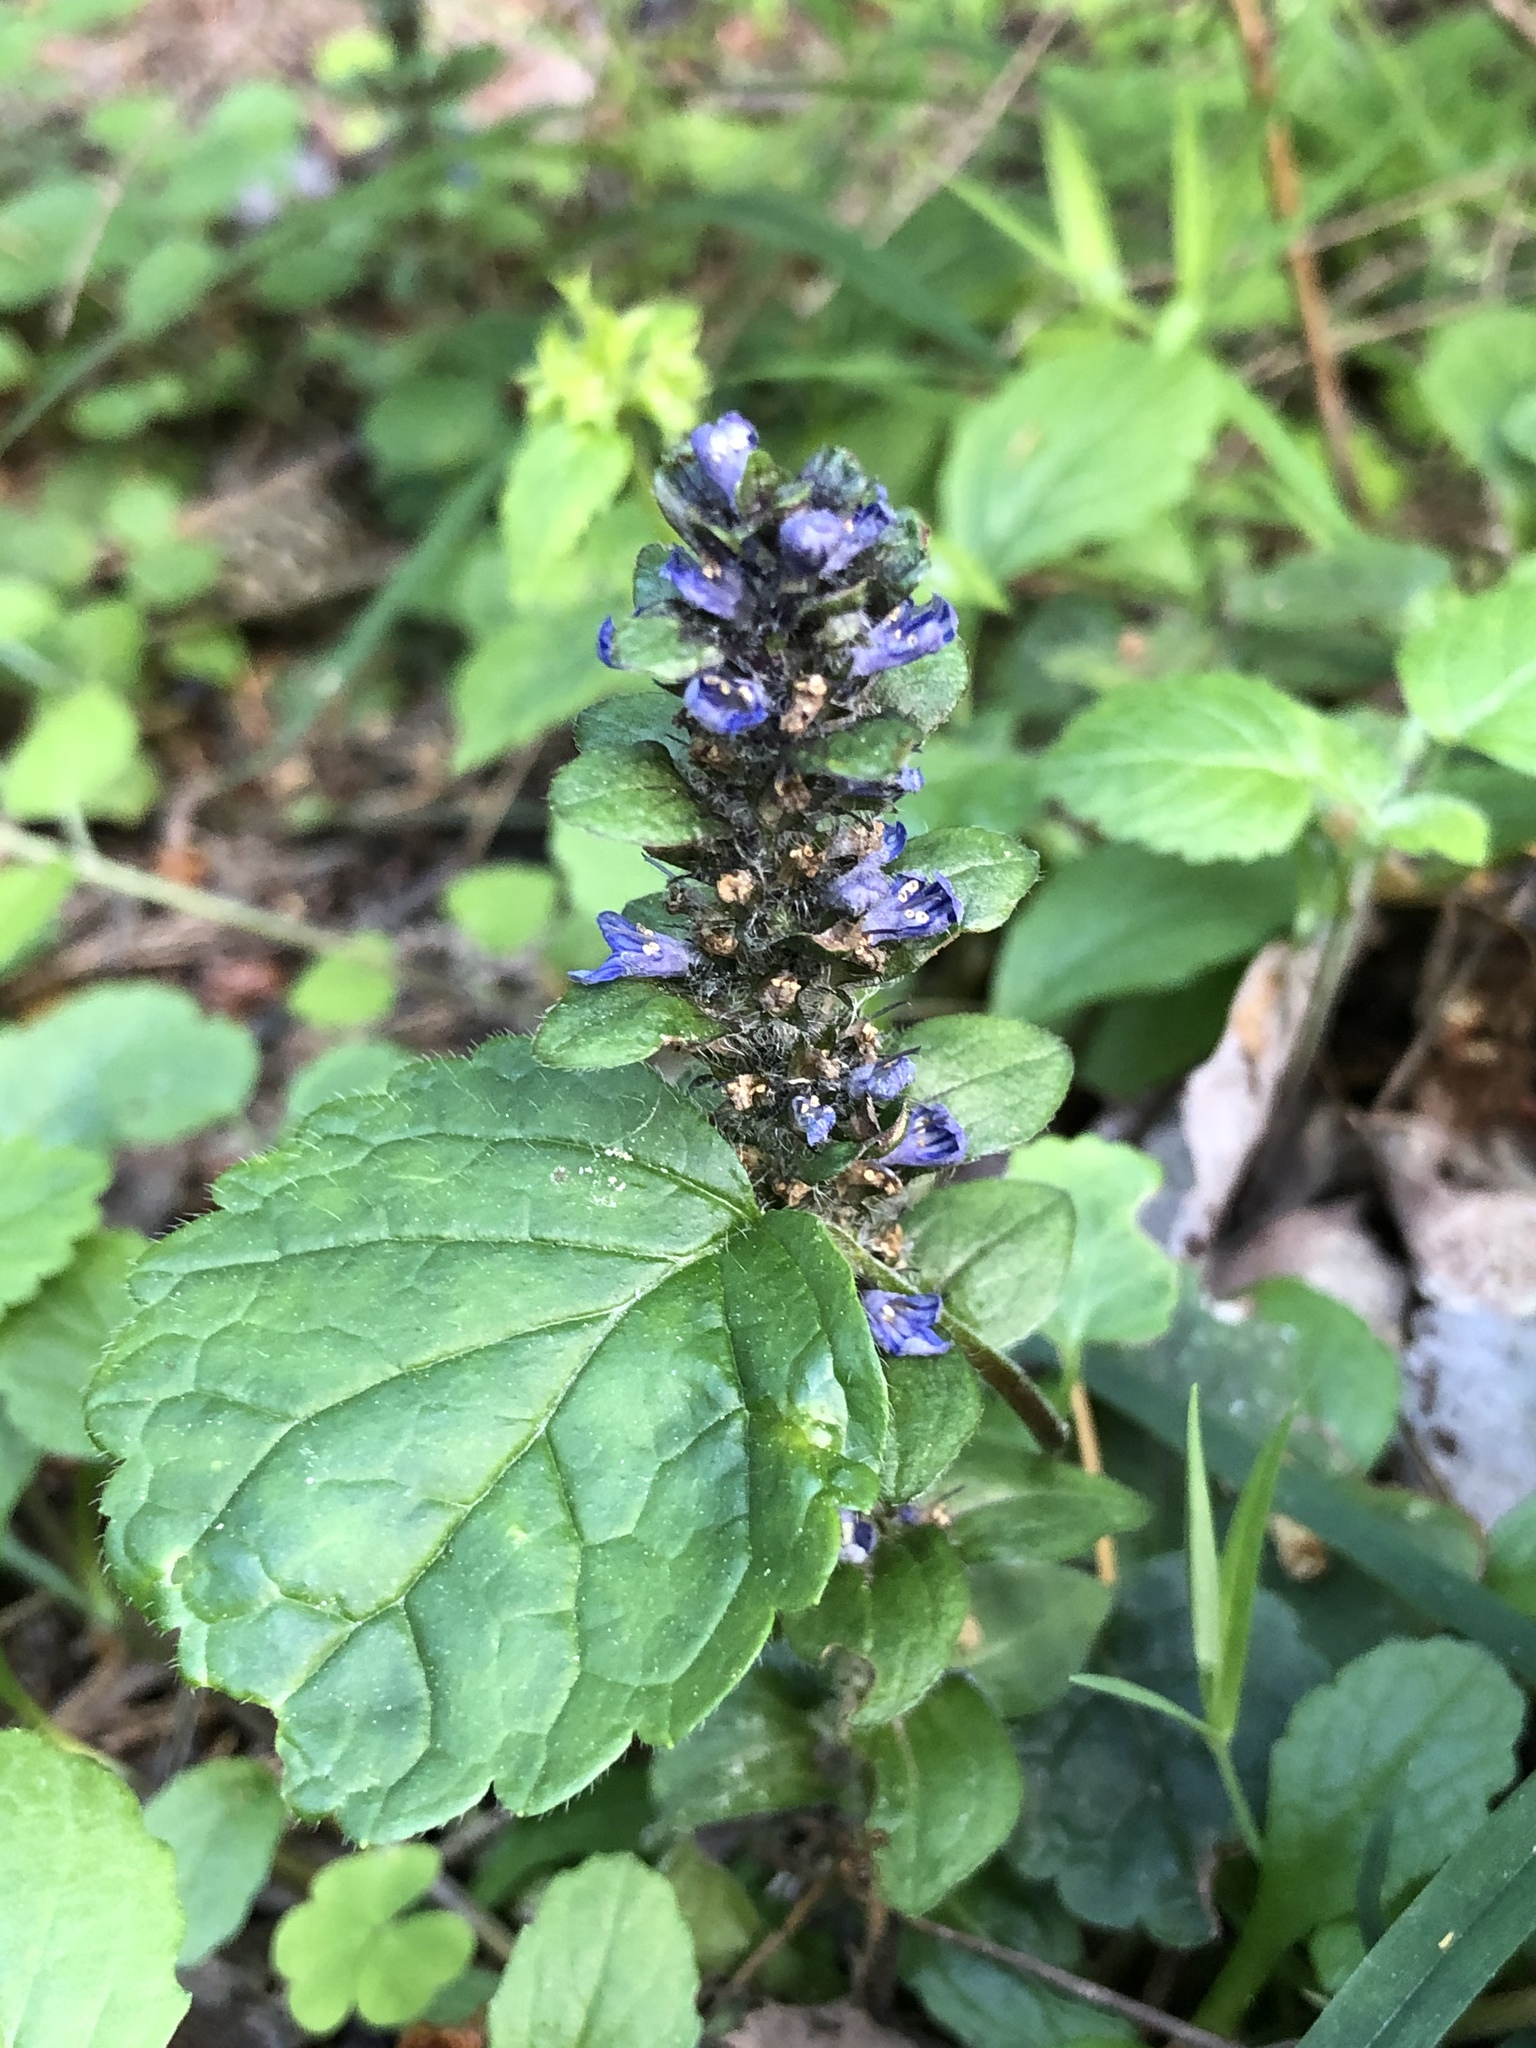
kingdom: Plantae
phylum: Tracheophyta
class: Magnoliopsida
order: Lamiales
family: Lamiaceae
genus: Ajuga
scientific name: Ajuga reptans
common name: Bugle
